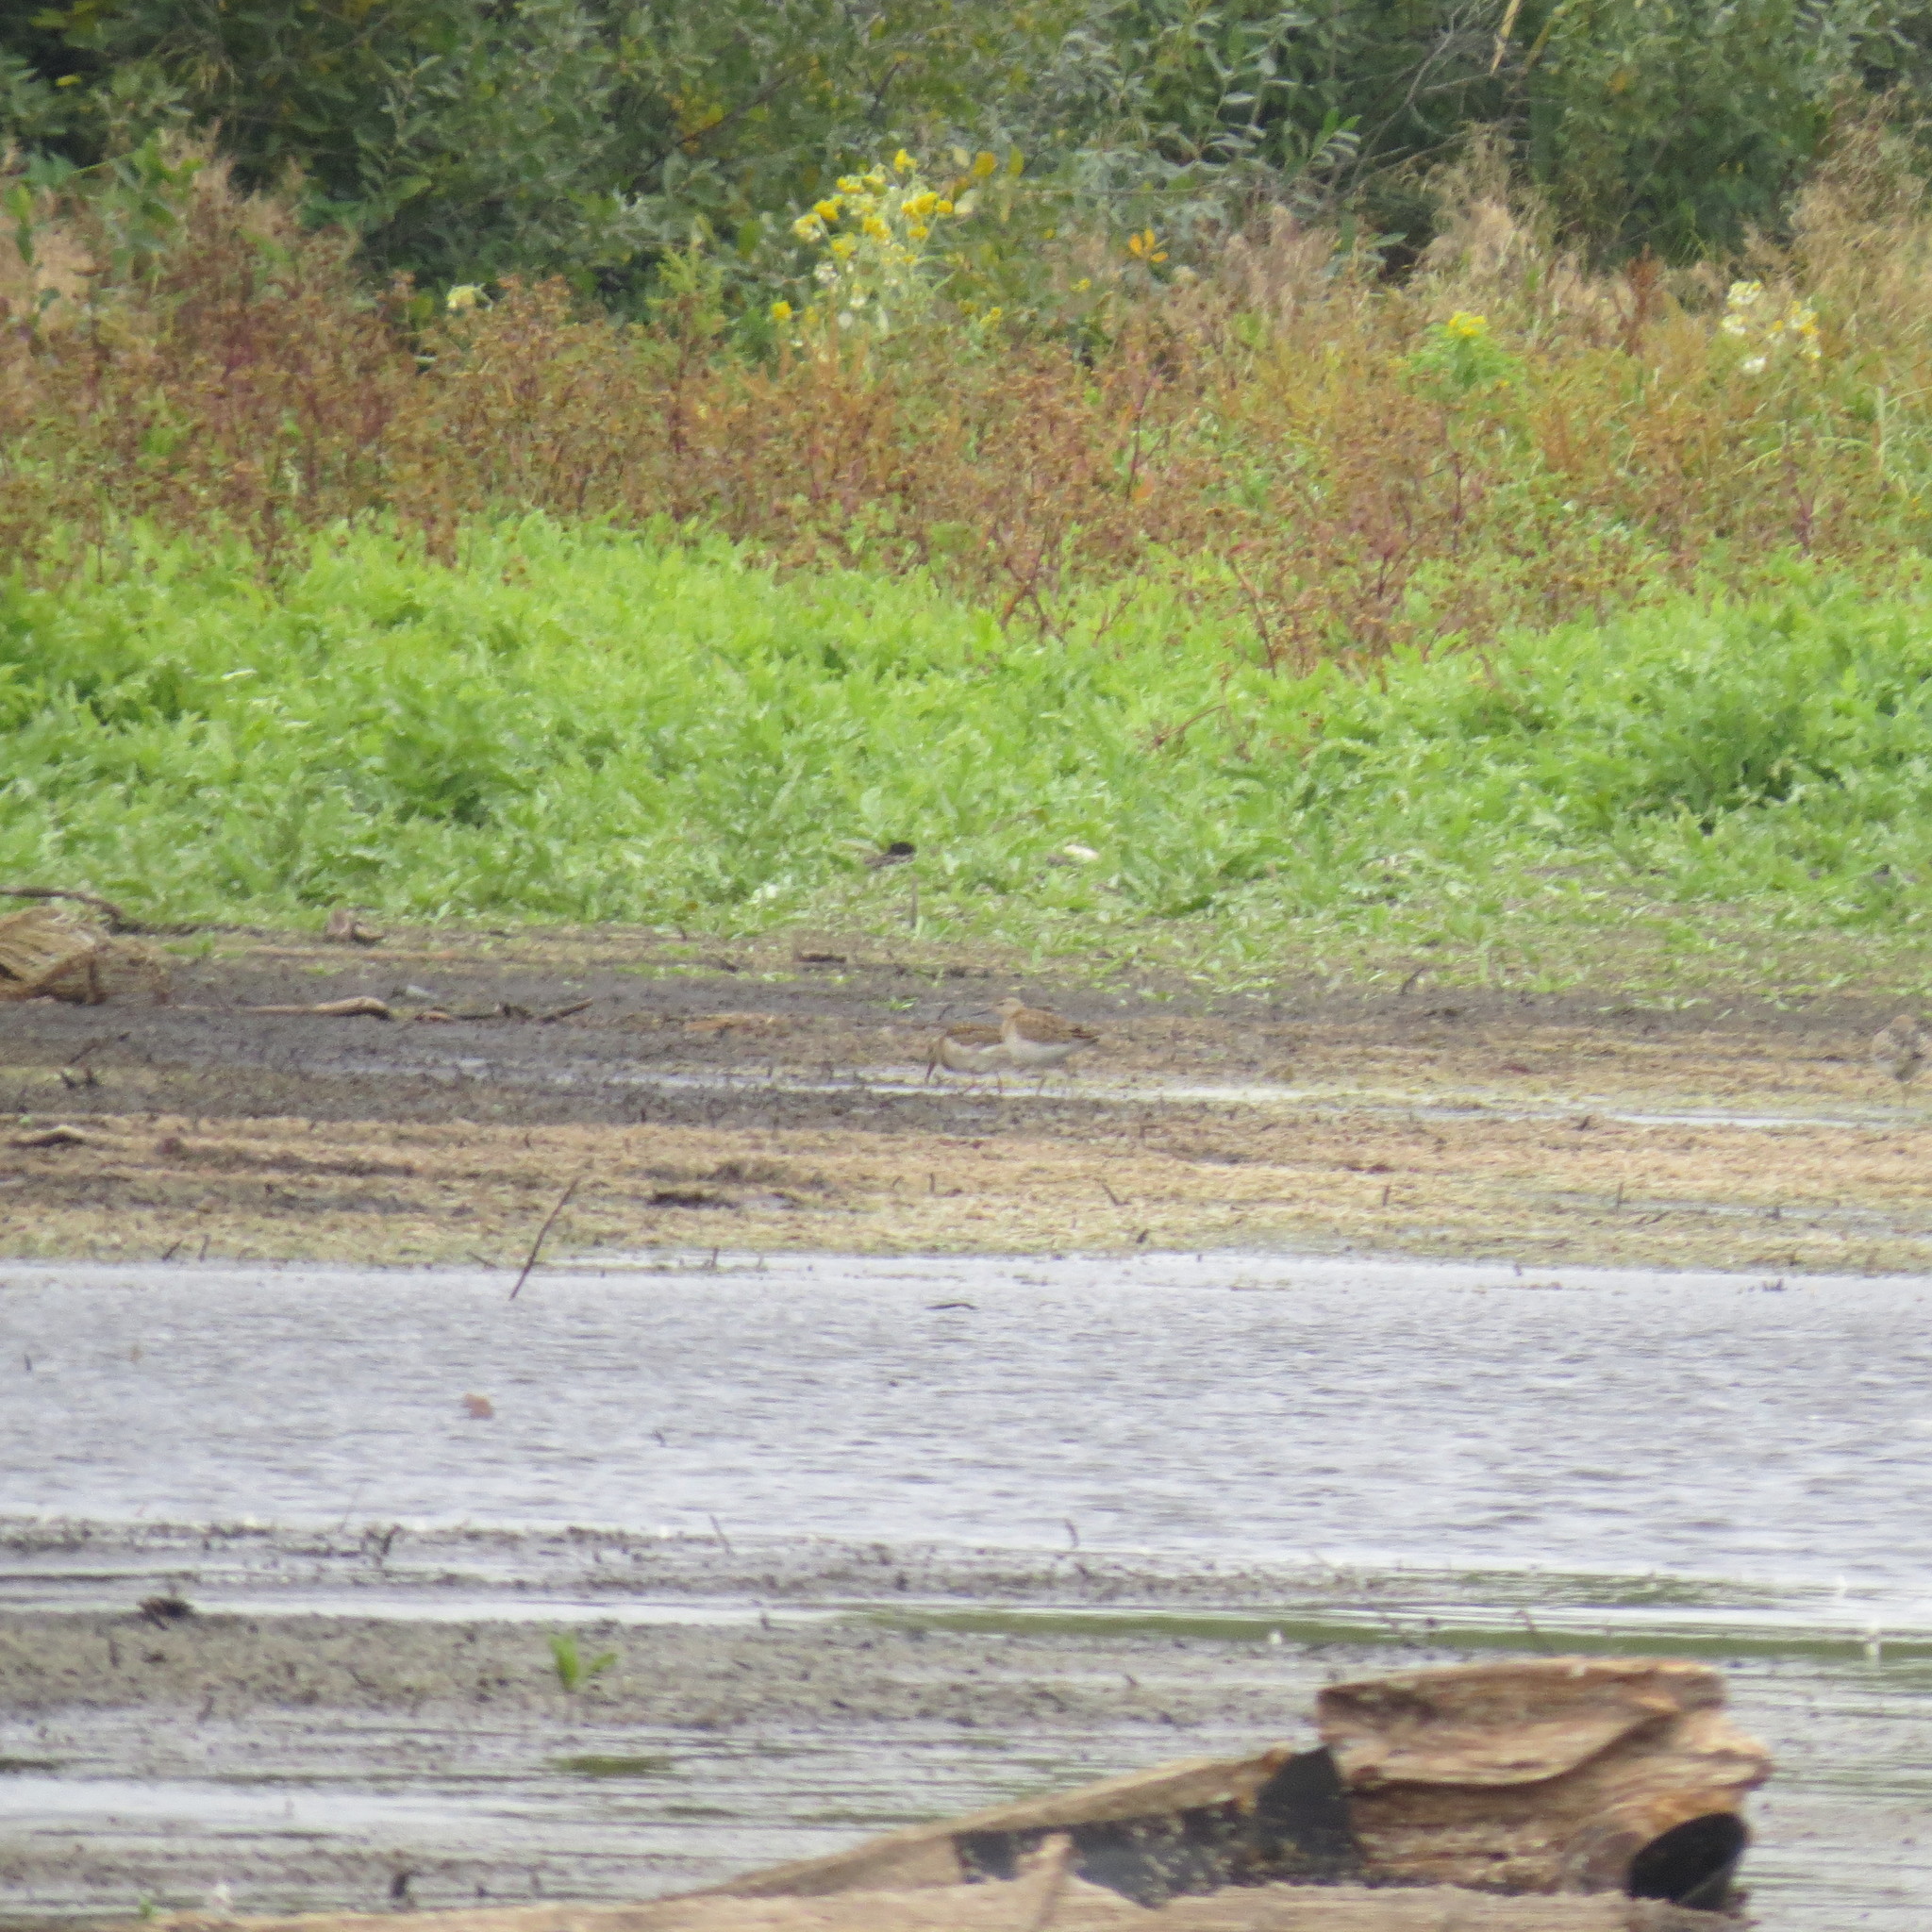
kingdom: Animalia
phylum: Chordata
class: Aves
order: Charadriiformes
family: Scolopacidae
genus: Calidris
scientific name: Calidris pugnax
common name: Ruff
